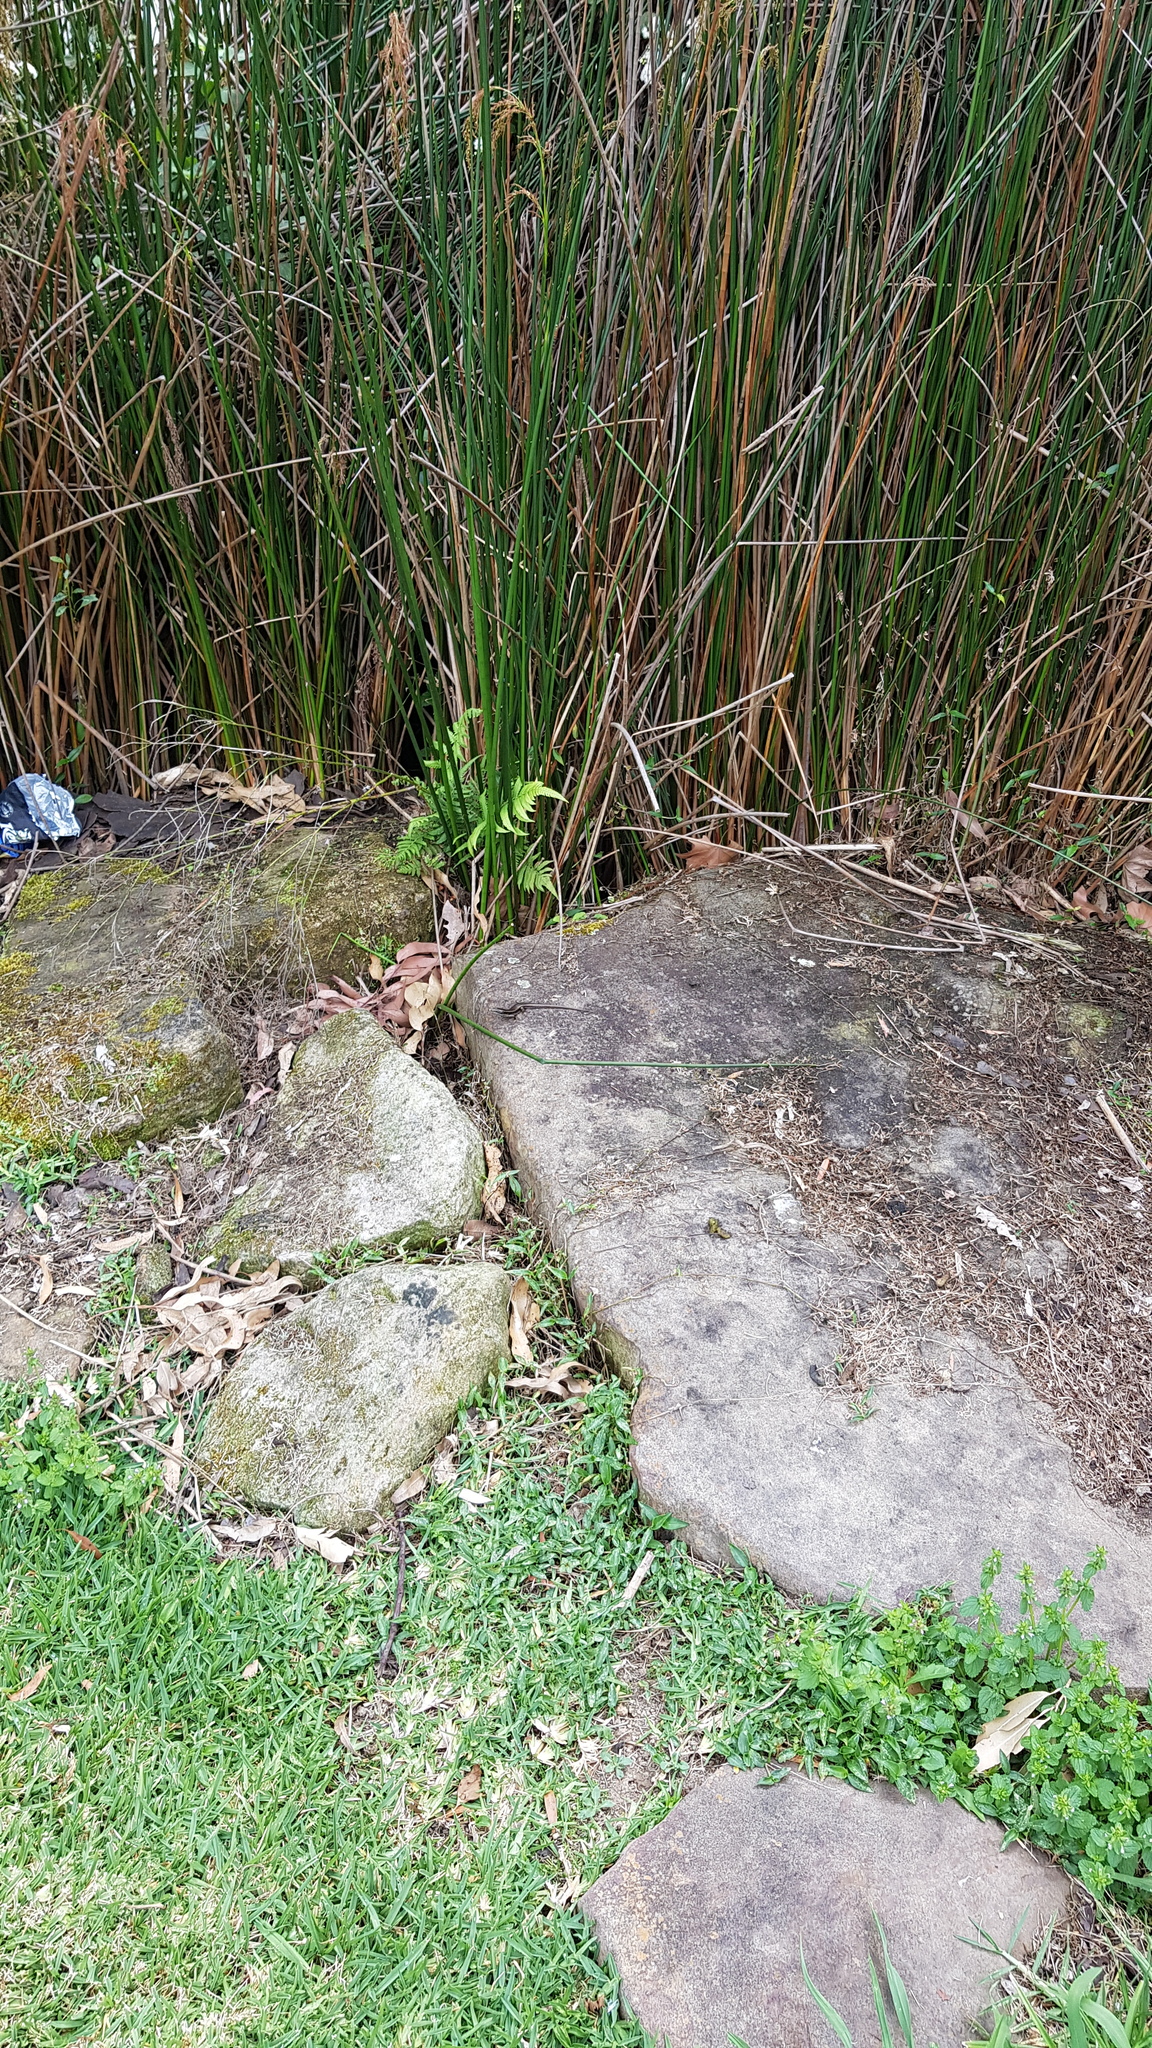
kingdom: Animalia
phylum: Chordata
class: Squamata
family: Scincidae
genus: Eulamprus
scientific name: Eulamprus quoyii
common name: Eastern water skink
